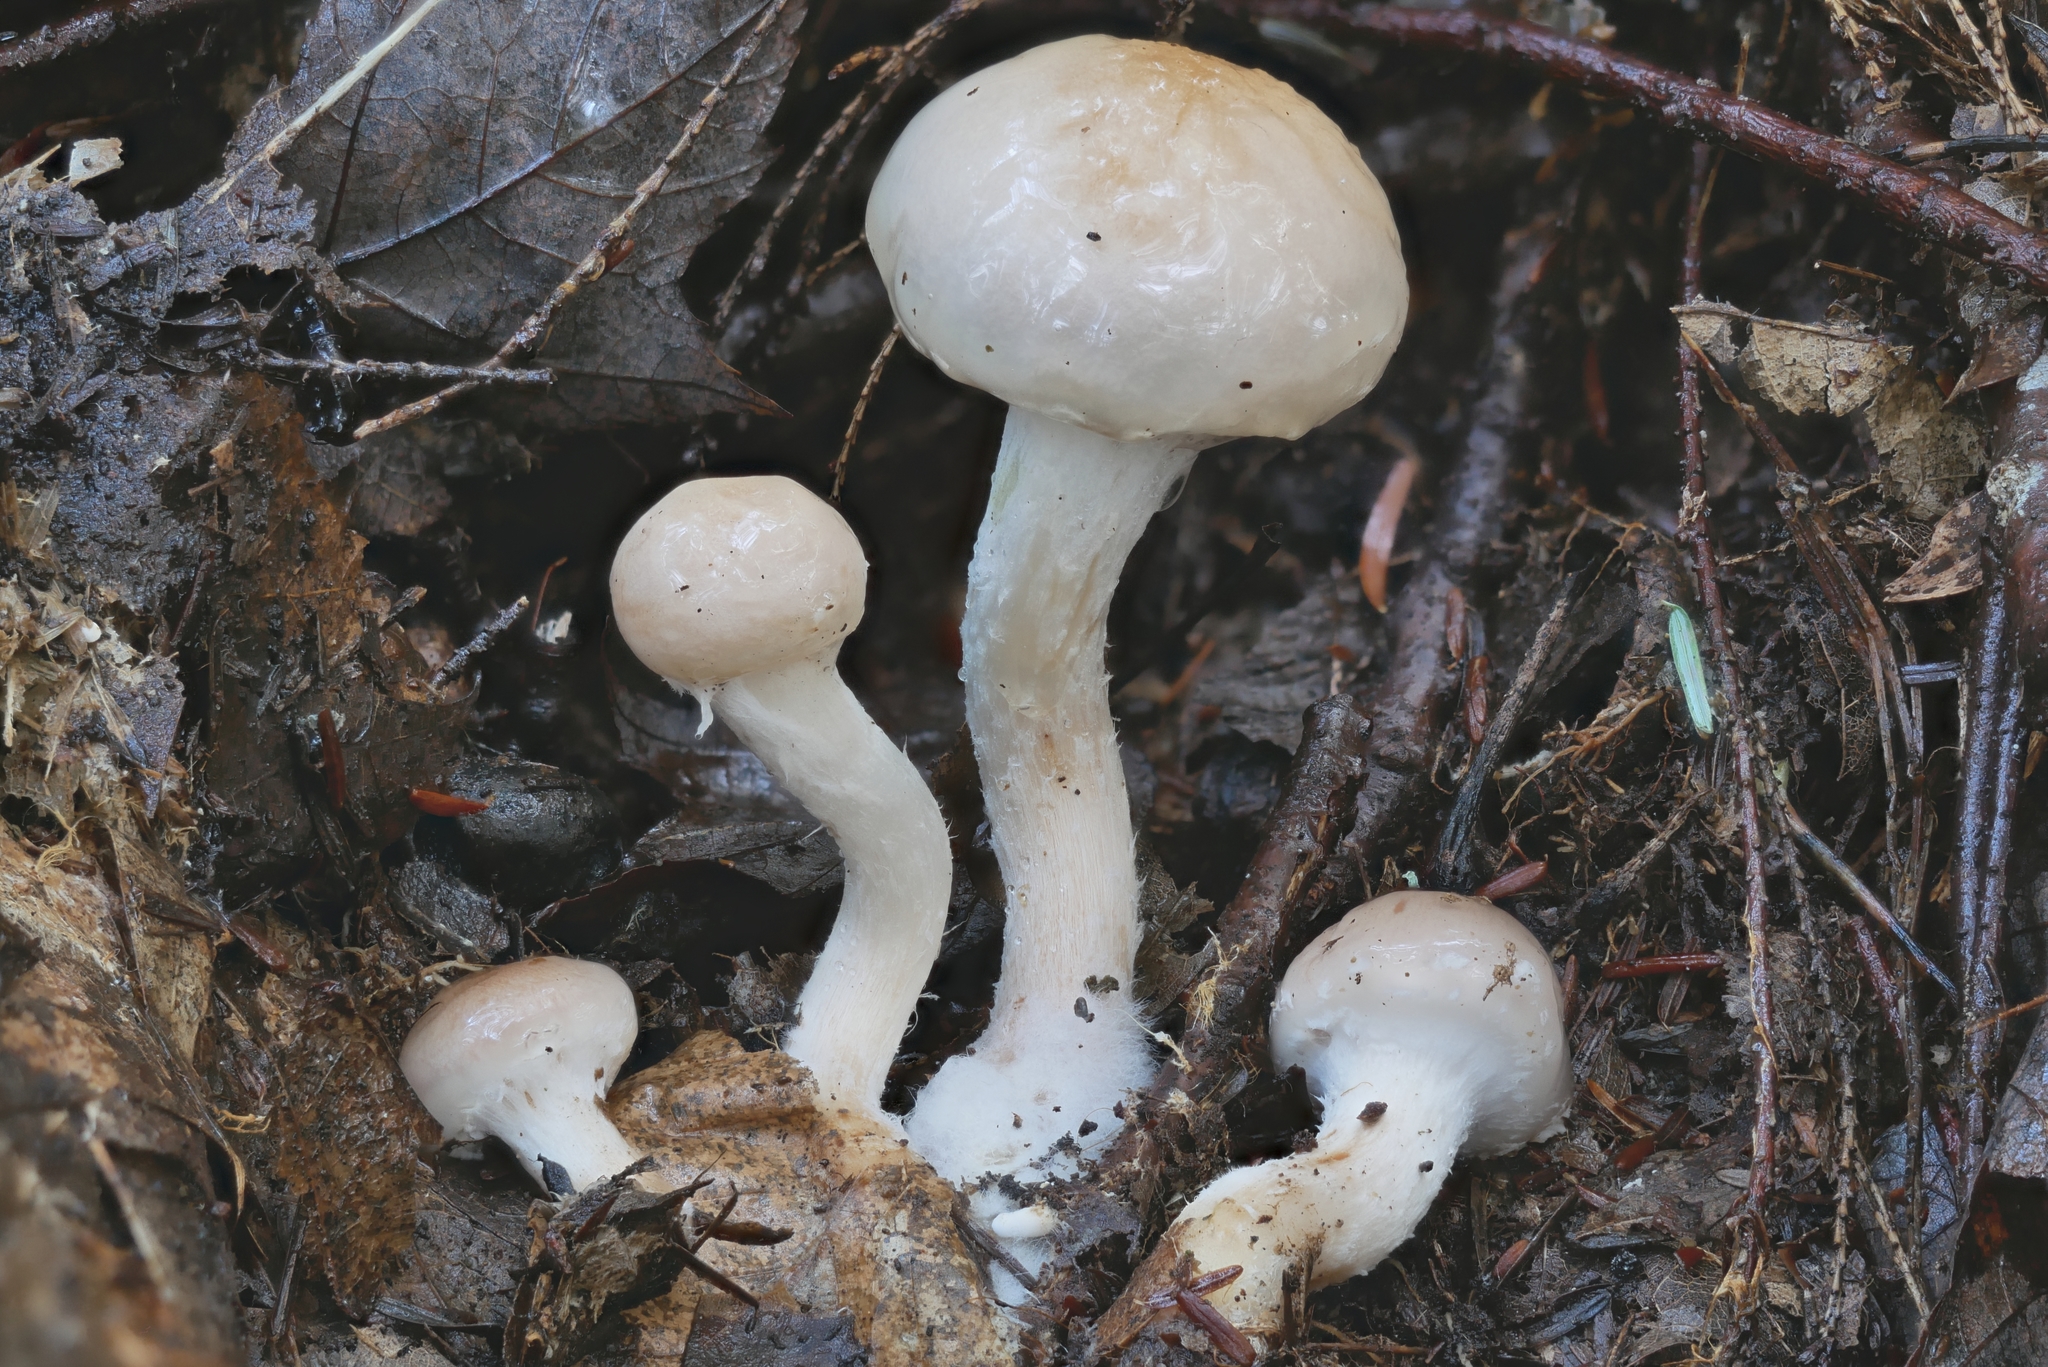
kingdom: Fungi
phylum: Basidiomycota
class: Agaricomycetes
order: Agaricales
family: Strophariaceae
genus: Pholiota
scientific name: Pholiota lenta
